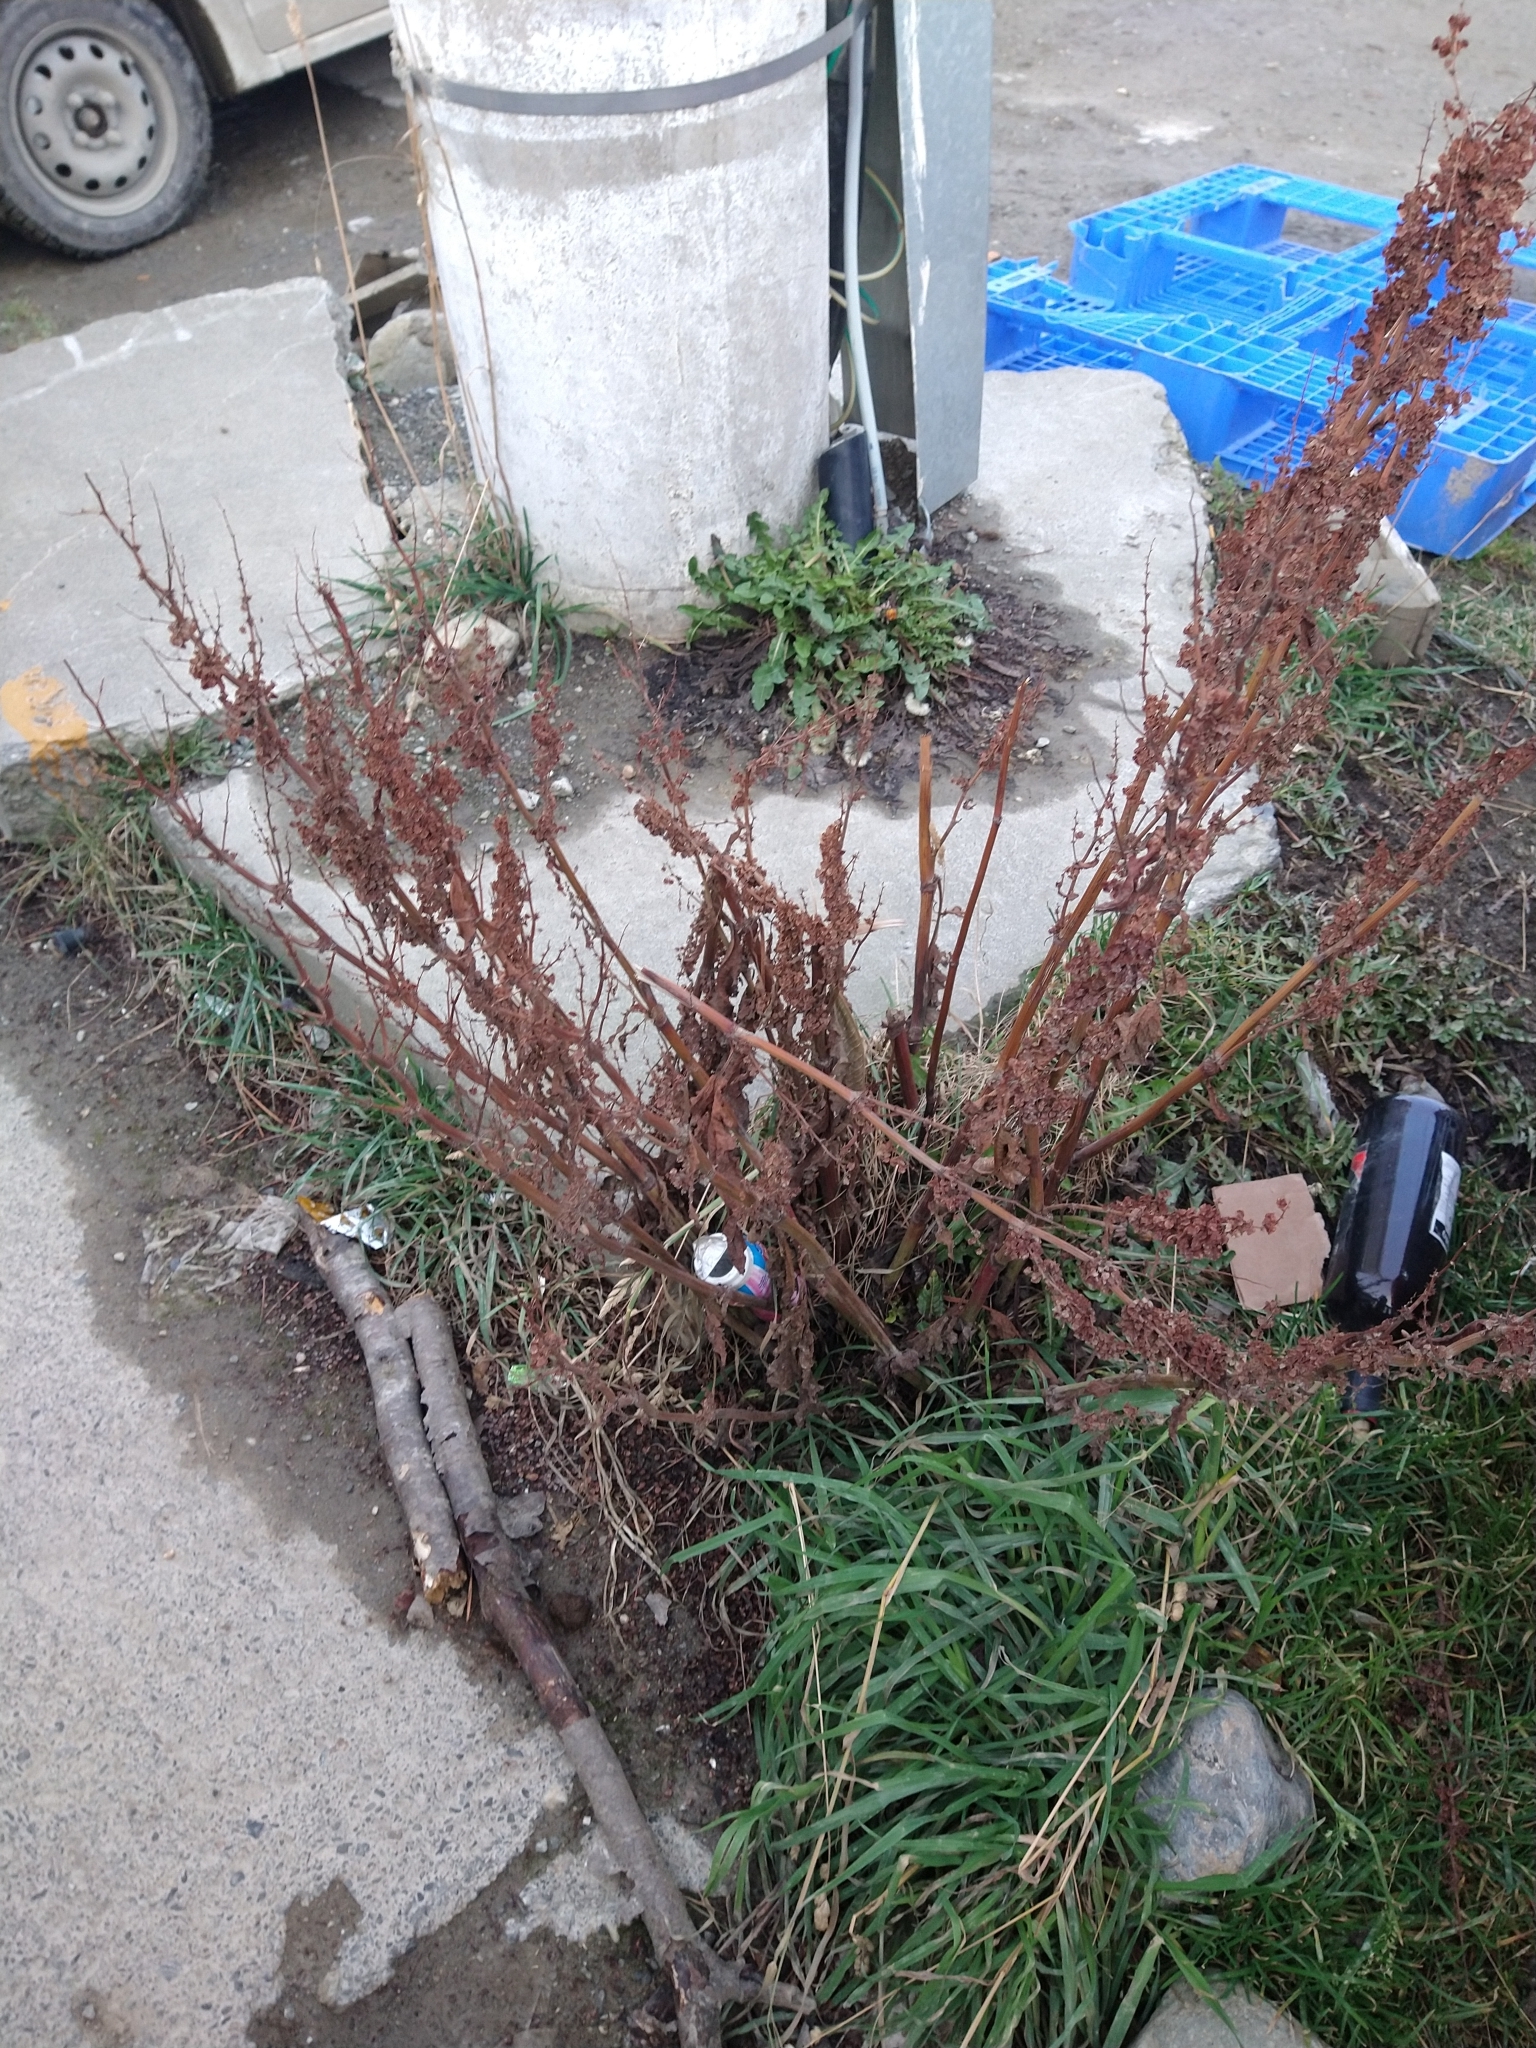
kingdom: Plantae
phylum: Tracheophyta
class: Magnoliopsida
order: Caryophyllales
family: Polygonaceae
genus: Rumex
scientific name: Rumex crispus
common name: Curled dock
